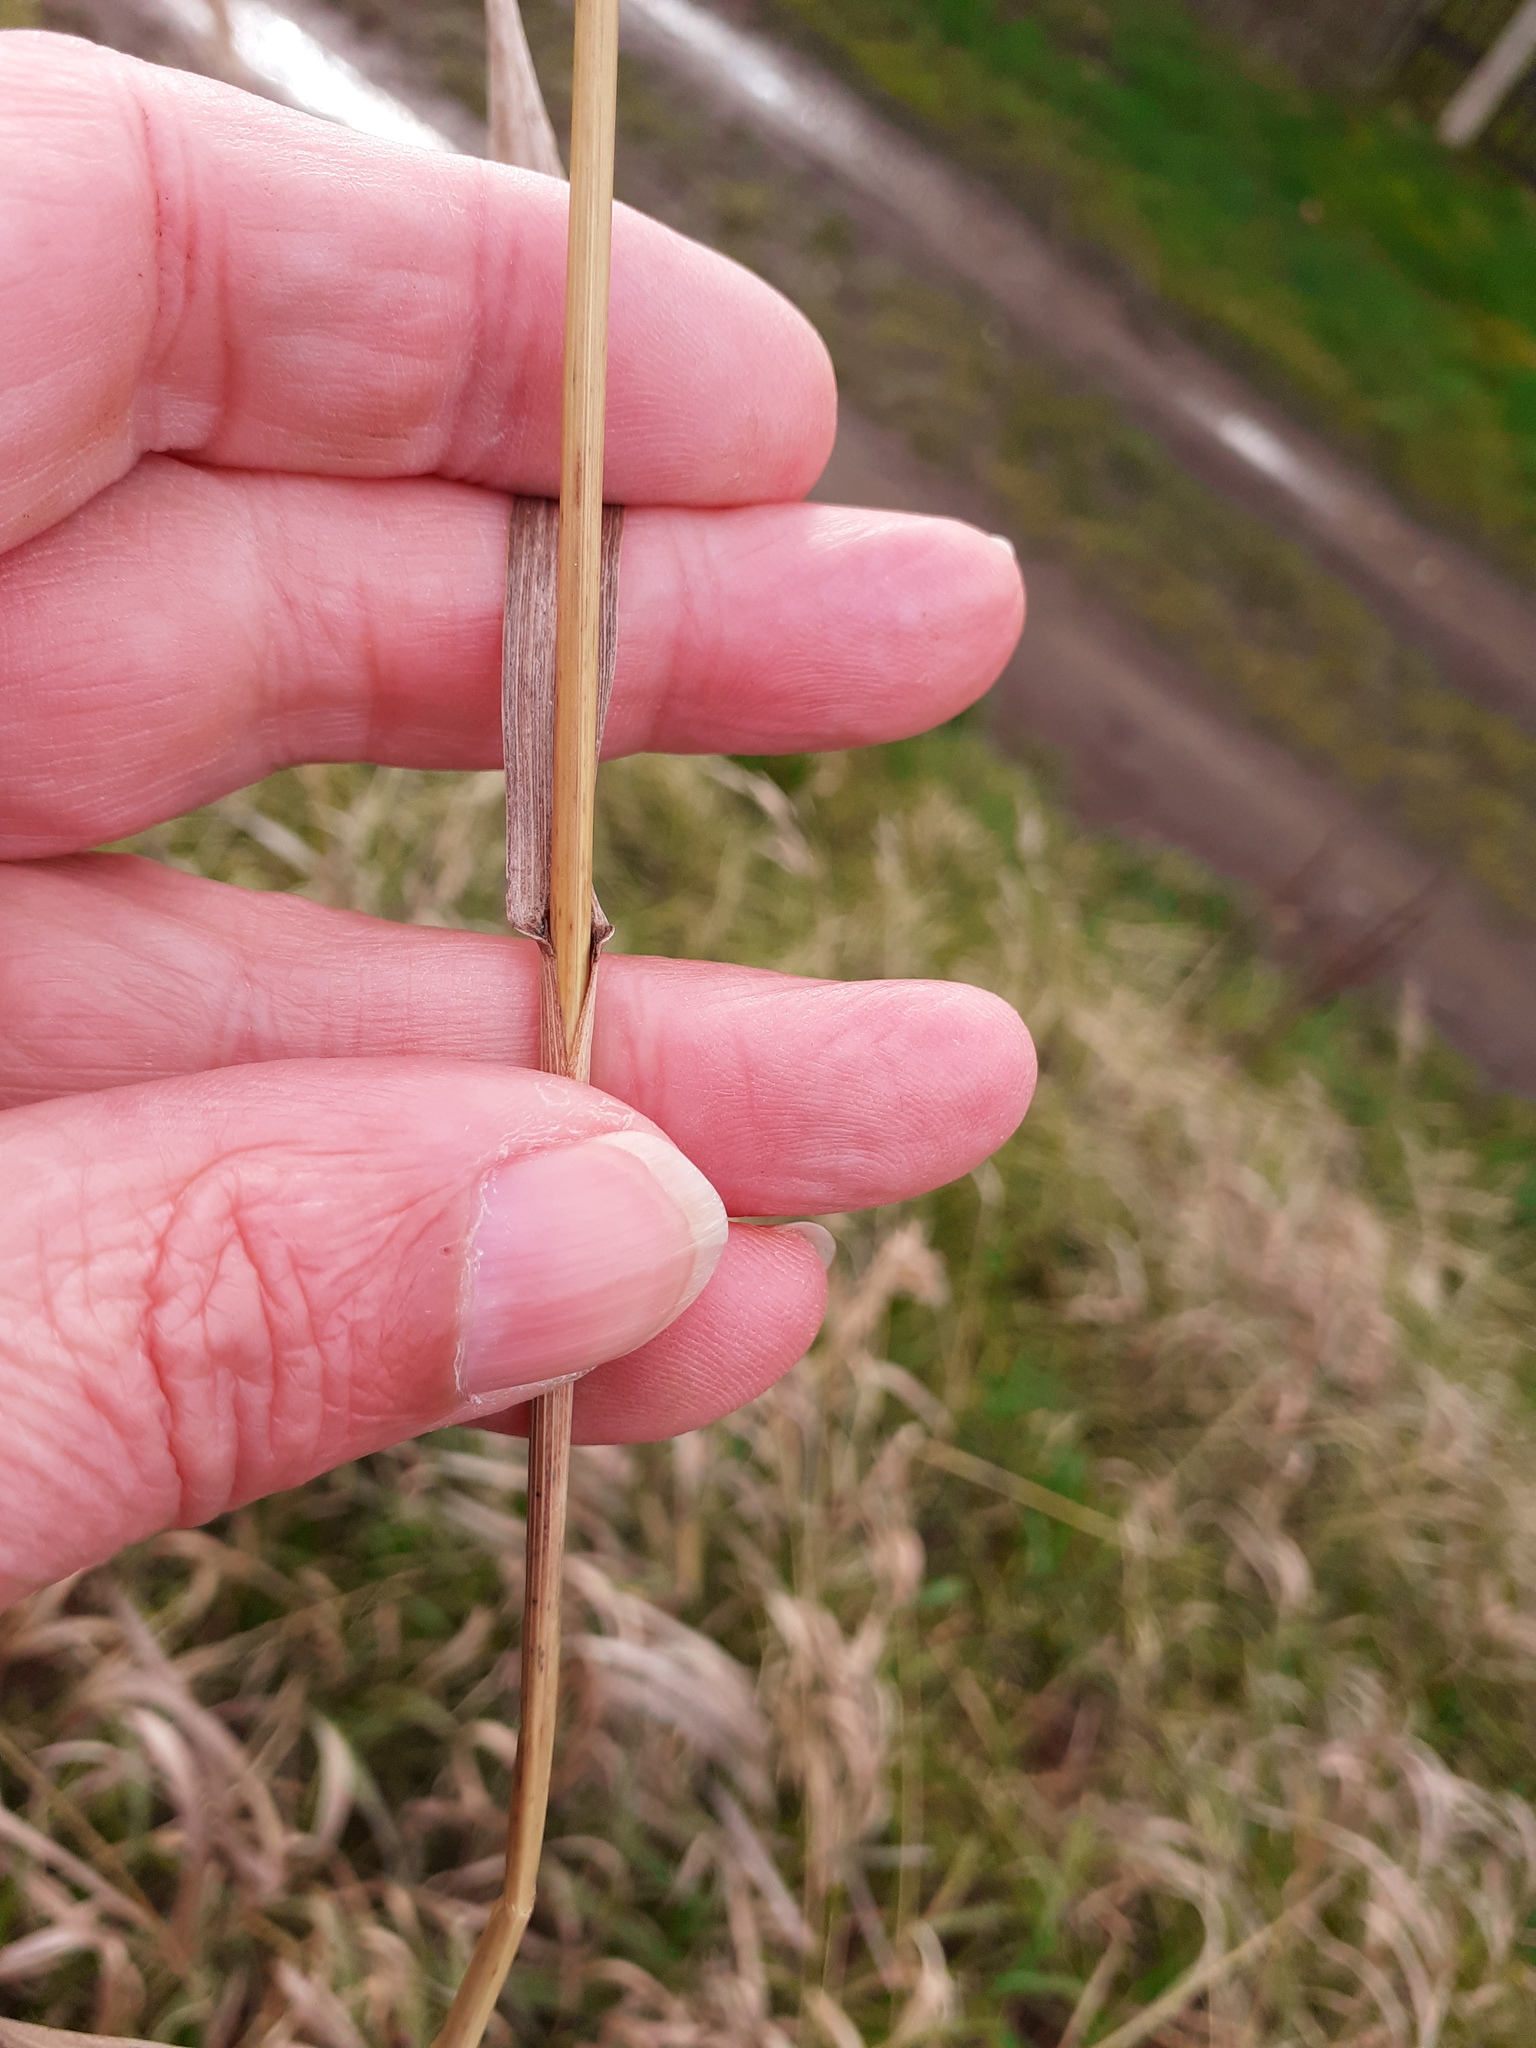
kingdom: Plantae
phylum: Tracheophyta
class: Liliopsida
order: Poales
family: Poaceae
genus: Bromus
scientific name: Bromus inermis
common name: Smooth brome
